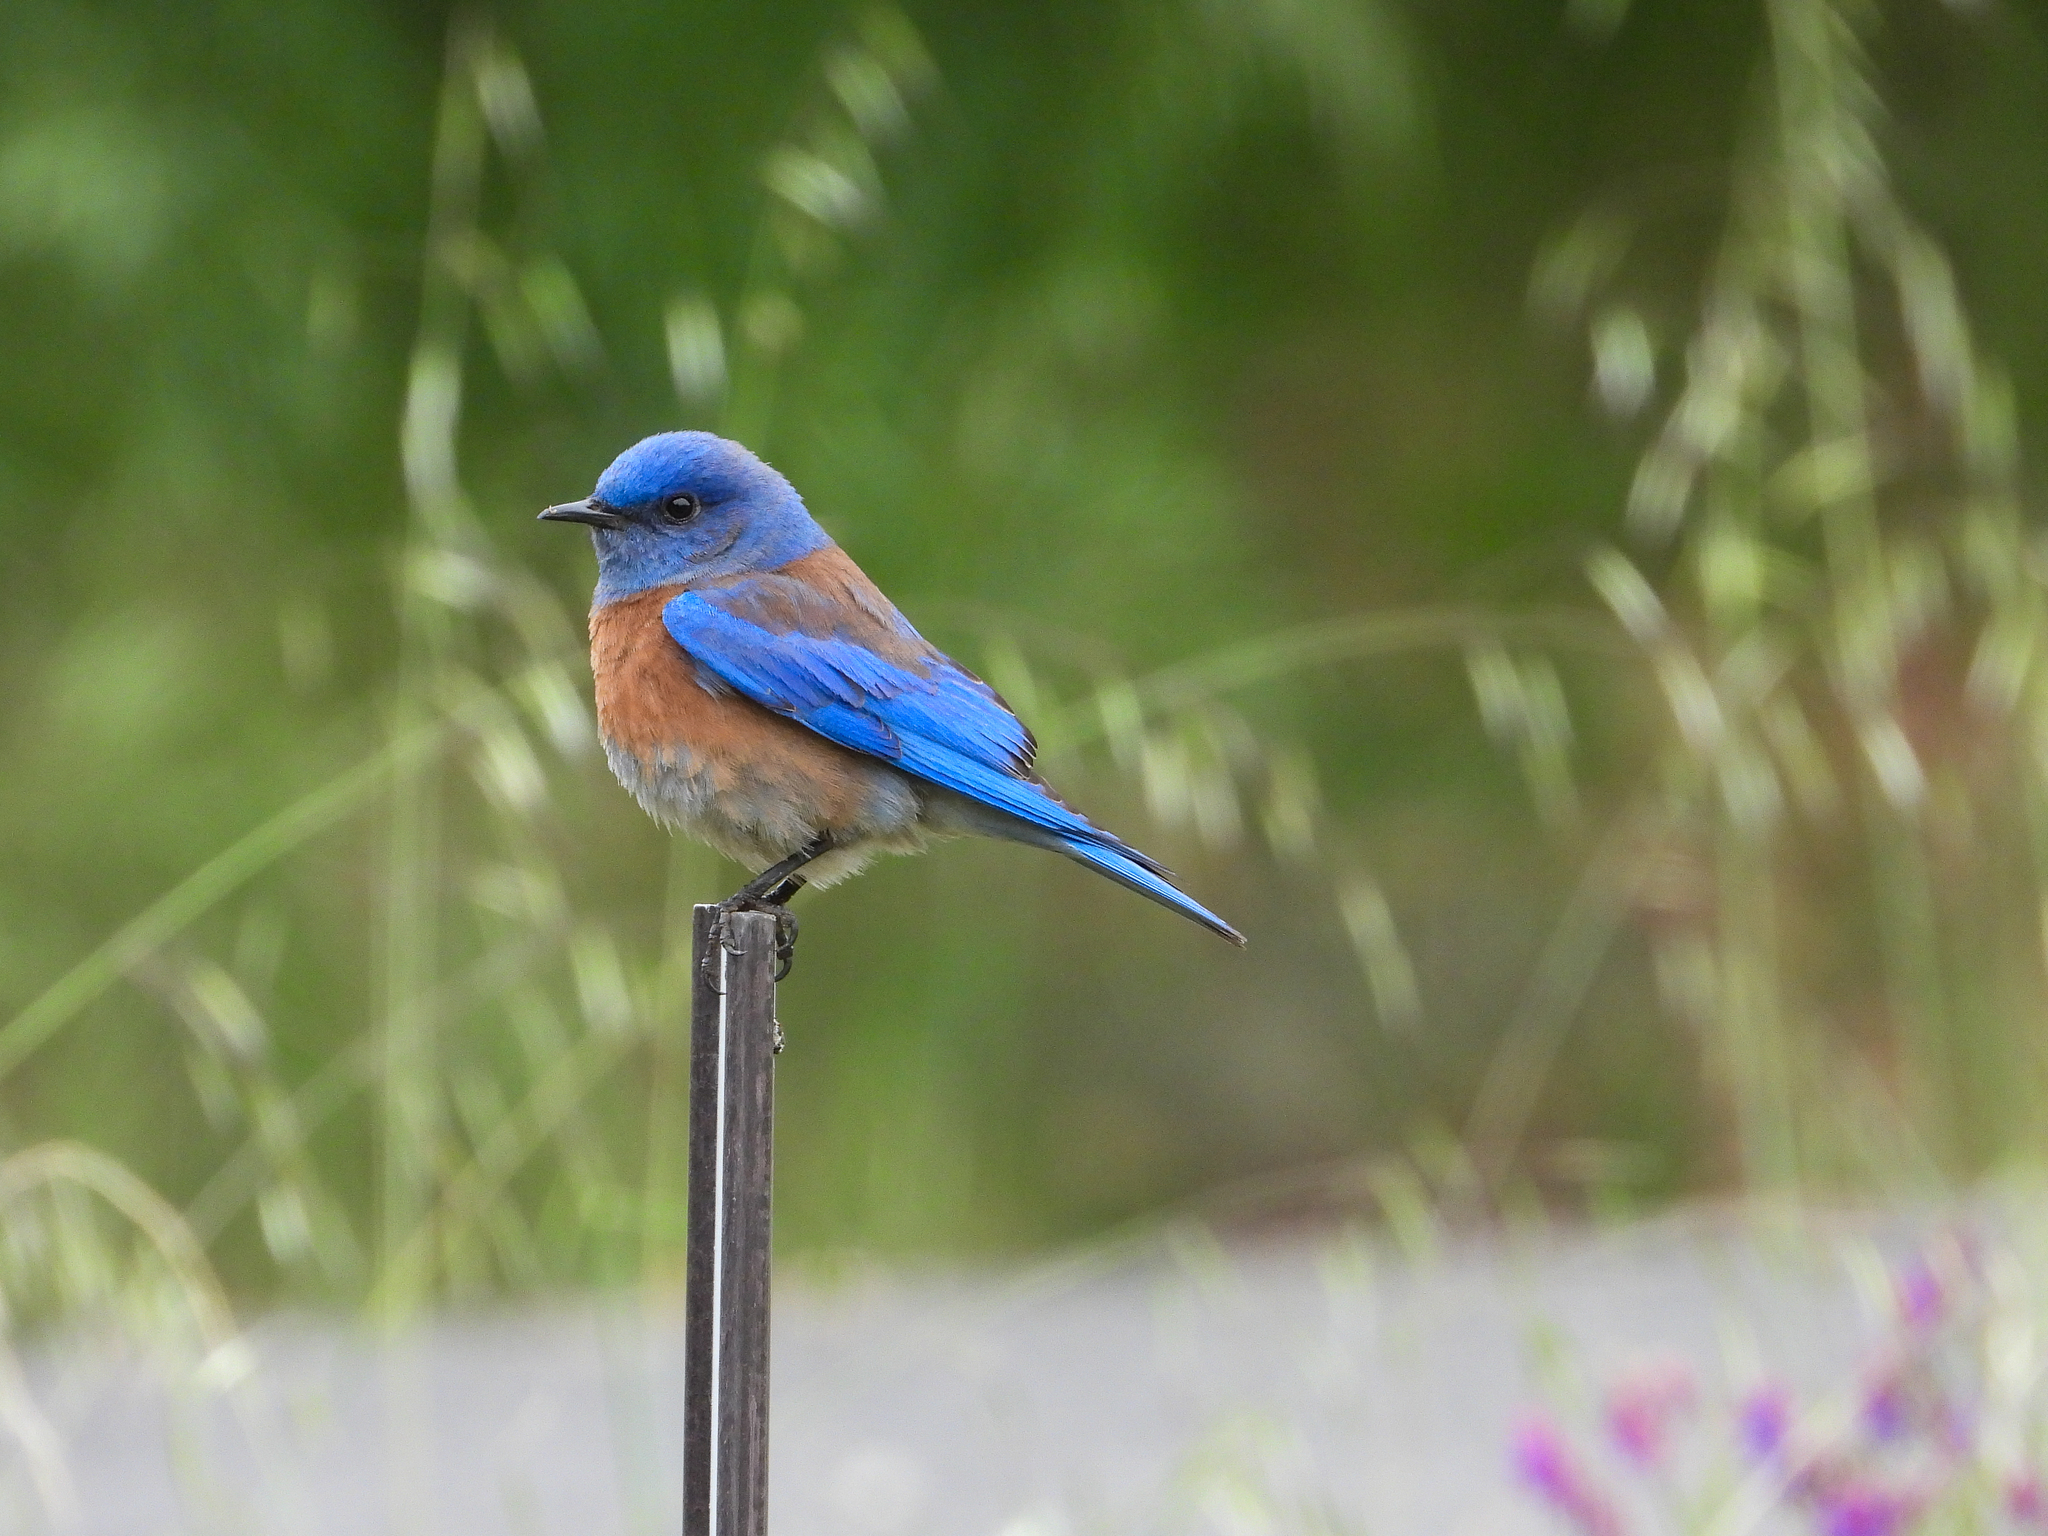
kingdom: Animalia
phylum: Chordata
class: Aves
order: Passeriformes
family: Turdidae
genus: Sialia
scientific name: Sialia mexicana
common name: Western bluebird
